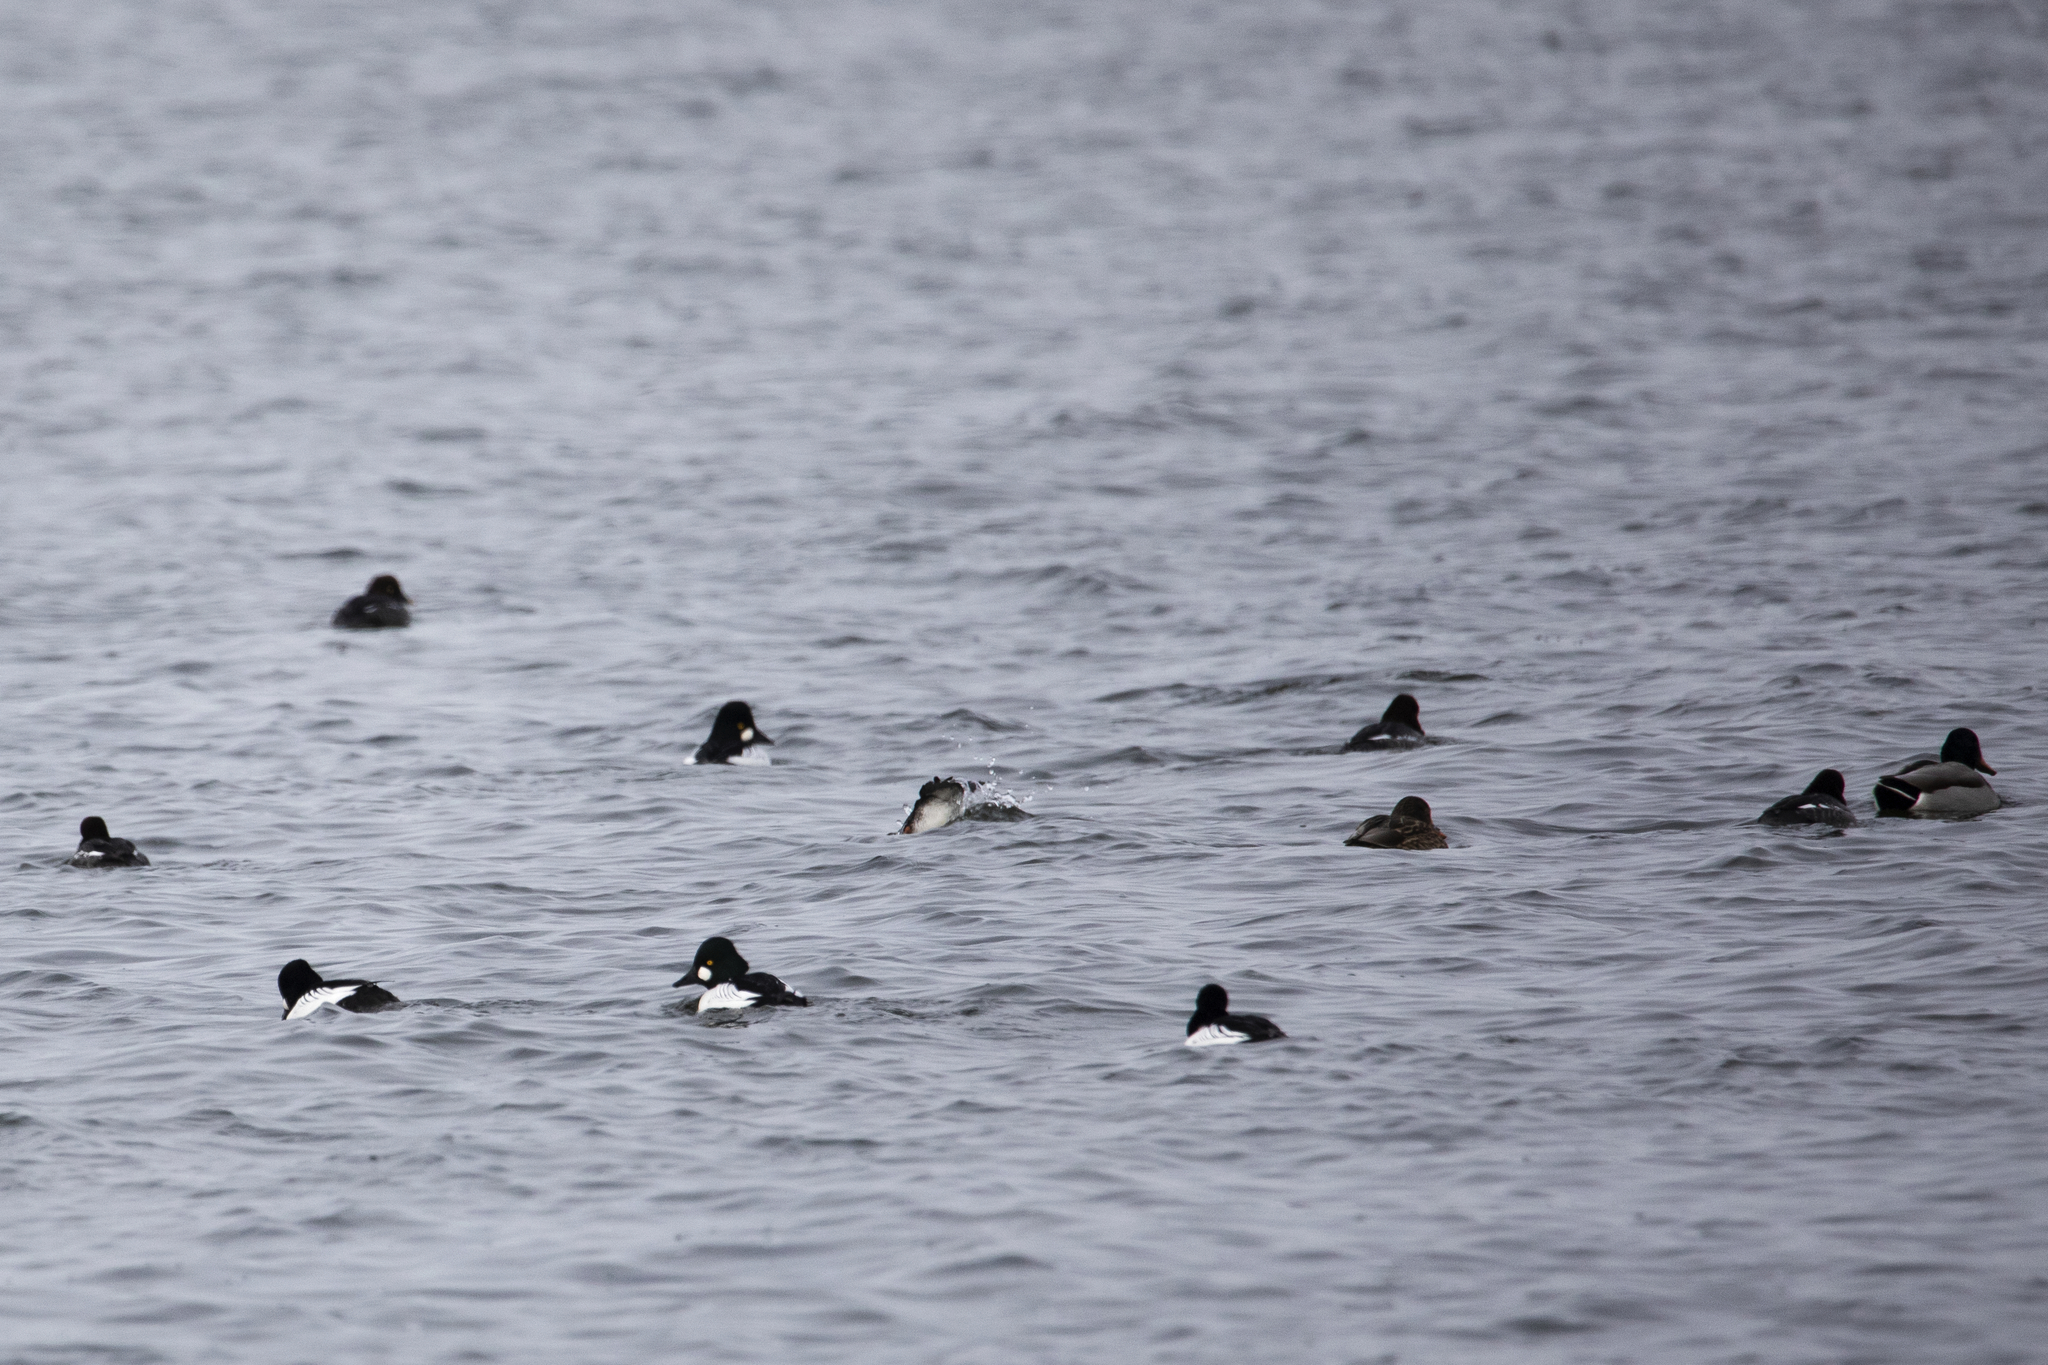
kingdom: Animalia
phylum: Chordata
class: Aves
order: Anseriformes
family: Anatidae
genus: Bucephala
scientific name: Bucephala clangula
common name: Common goldeneye
